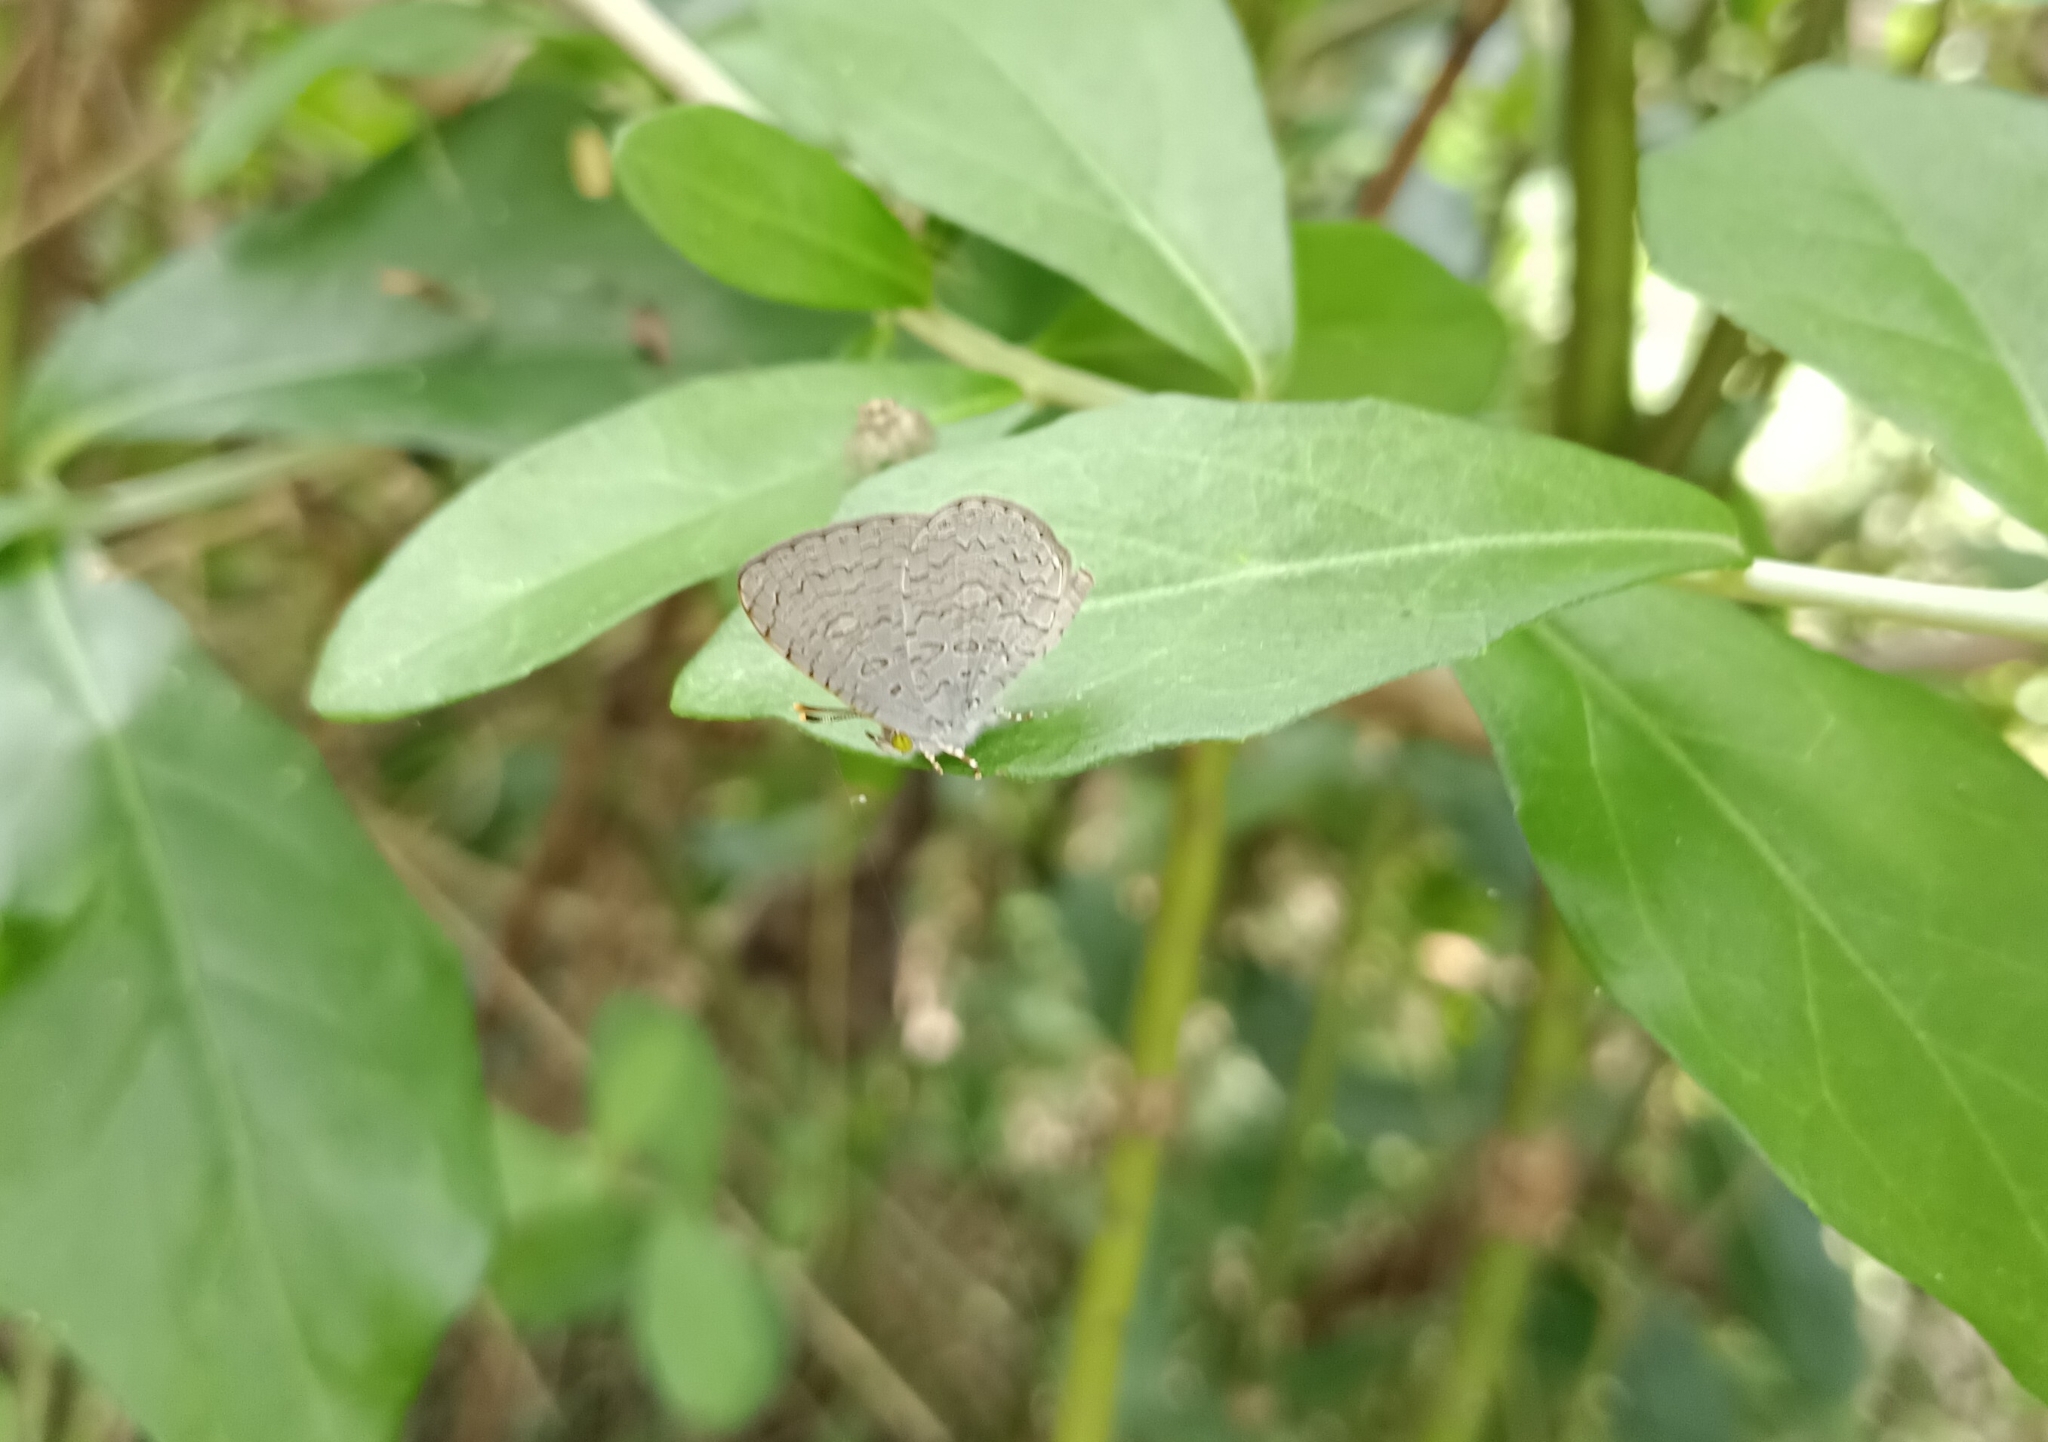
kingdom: Animalia
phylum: Arthropoda
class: Insecta
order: Lepidoptera
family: Lycaenidae
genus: Spalgis
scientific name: Spalgis epius
